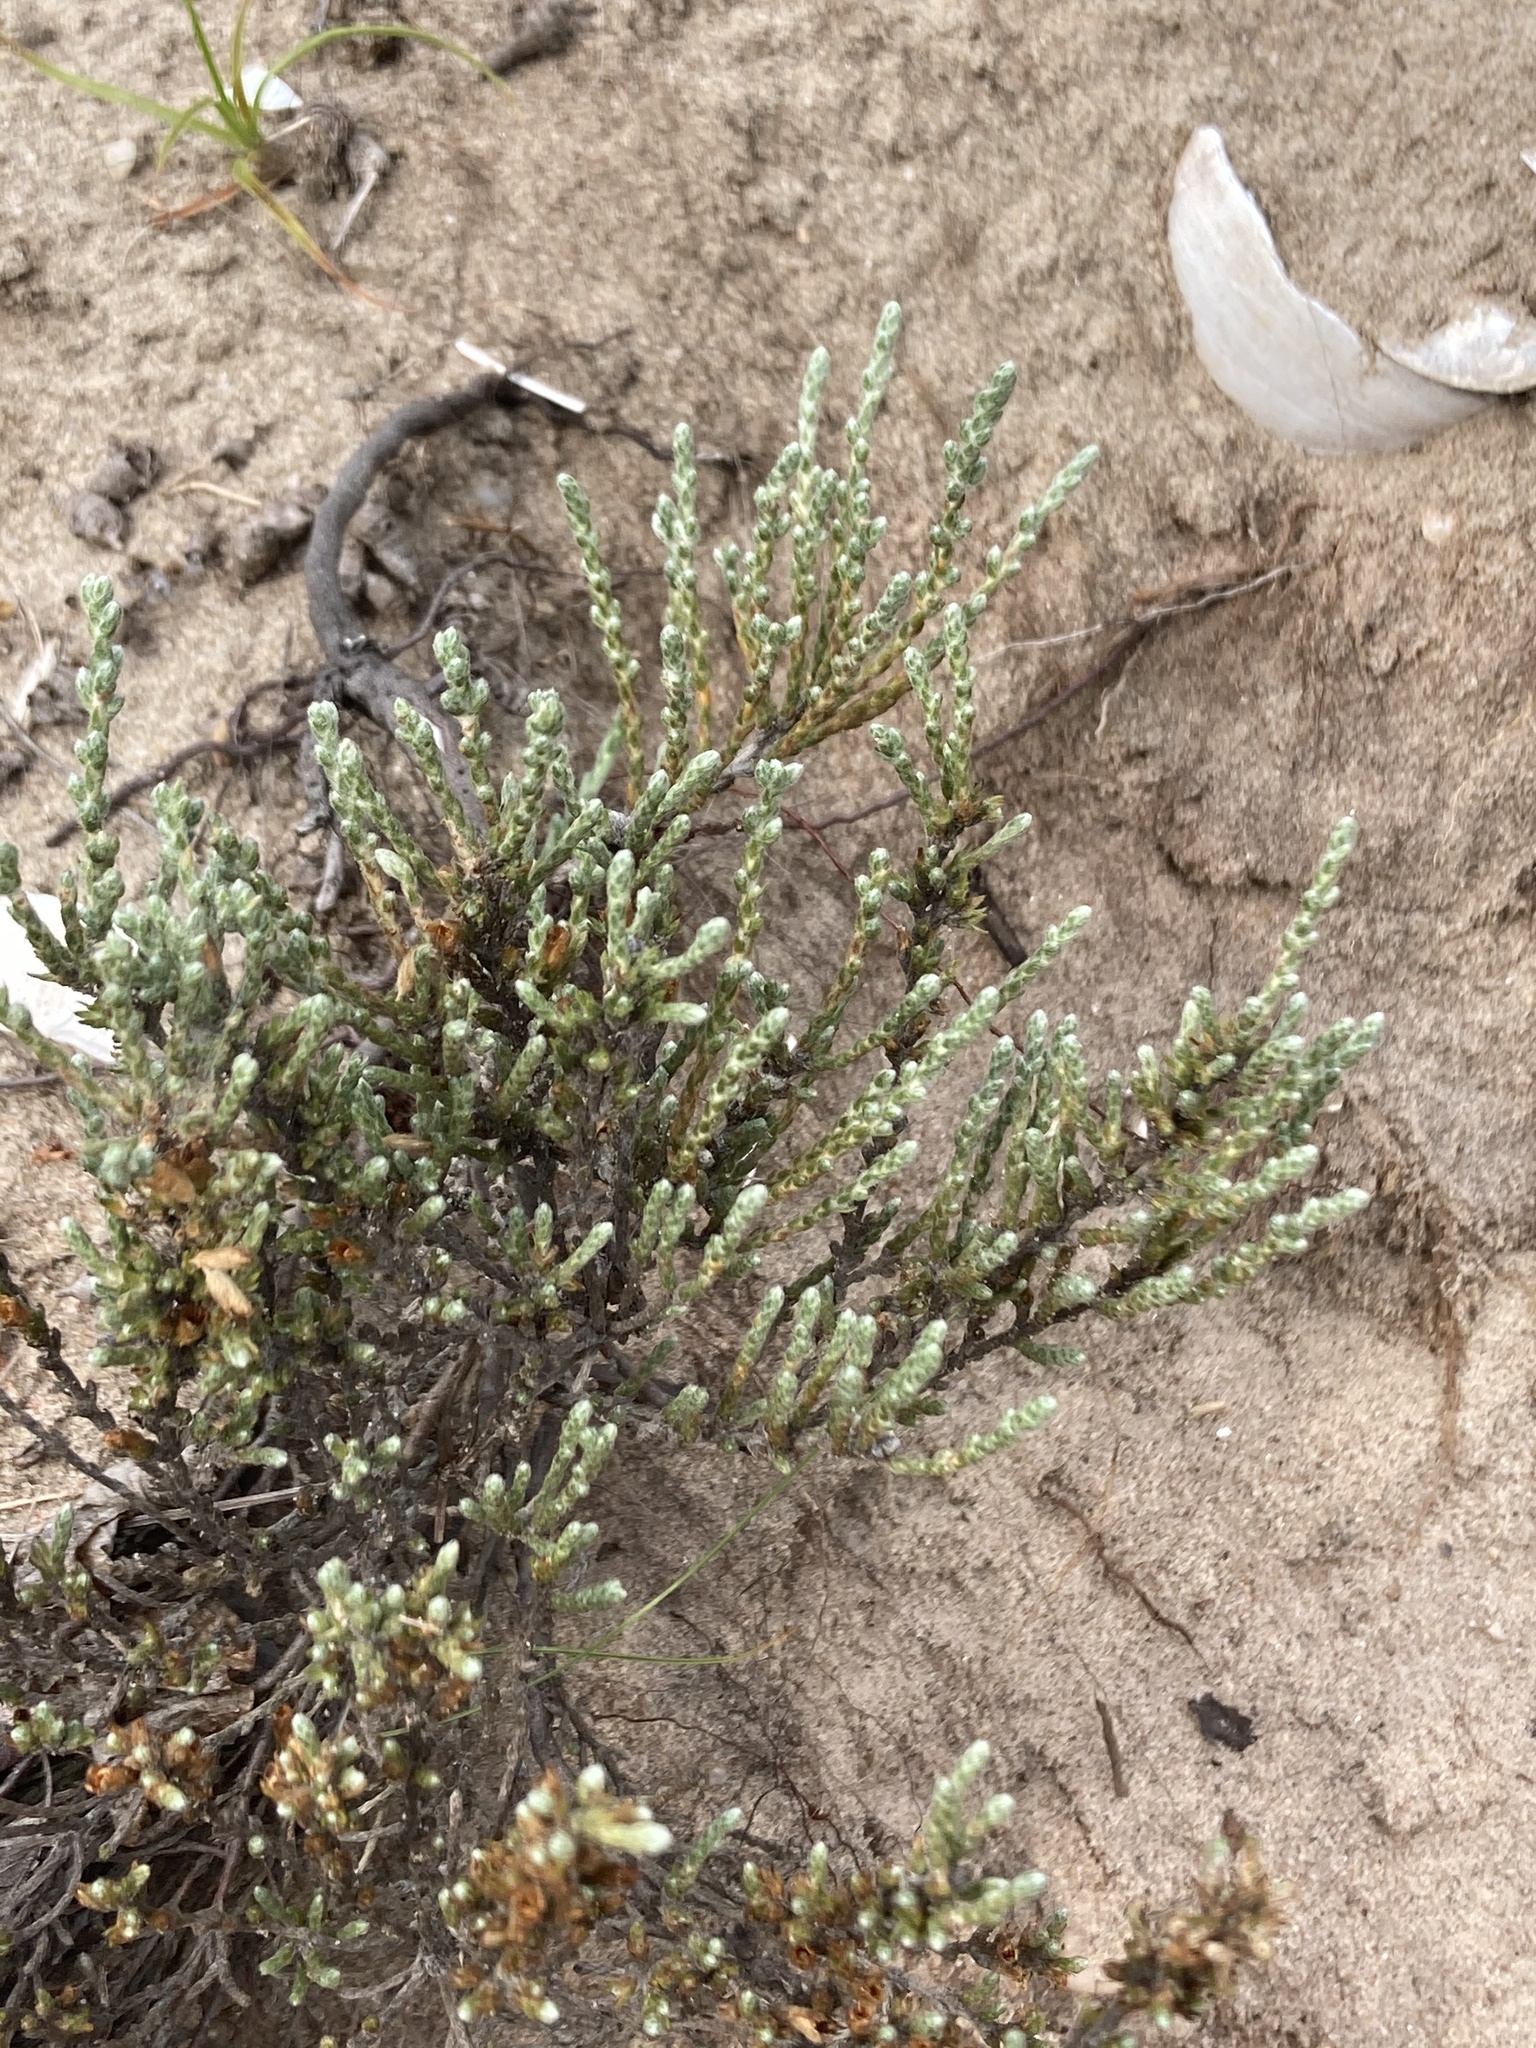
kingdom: Plantae
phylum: Tracheophyta
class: Magnoliopsida
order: Malvales
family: Cistaceae
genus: Hudsonia
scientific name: Hudsonia tomentosa
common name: Beach-heath
